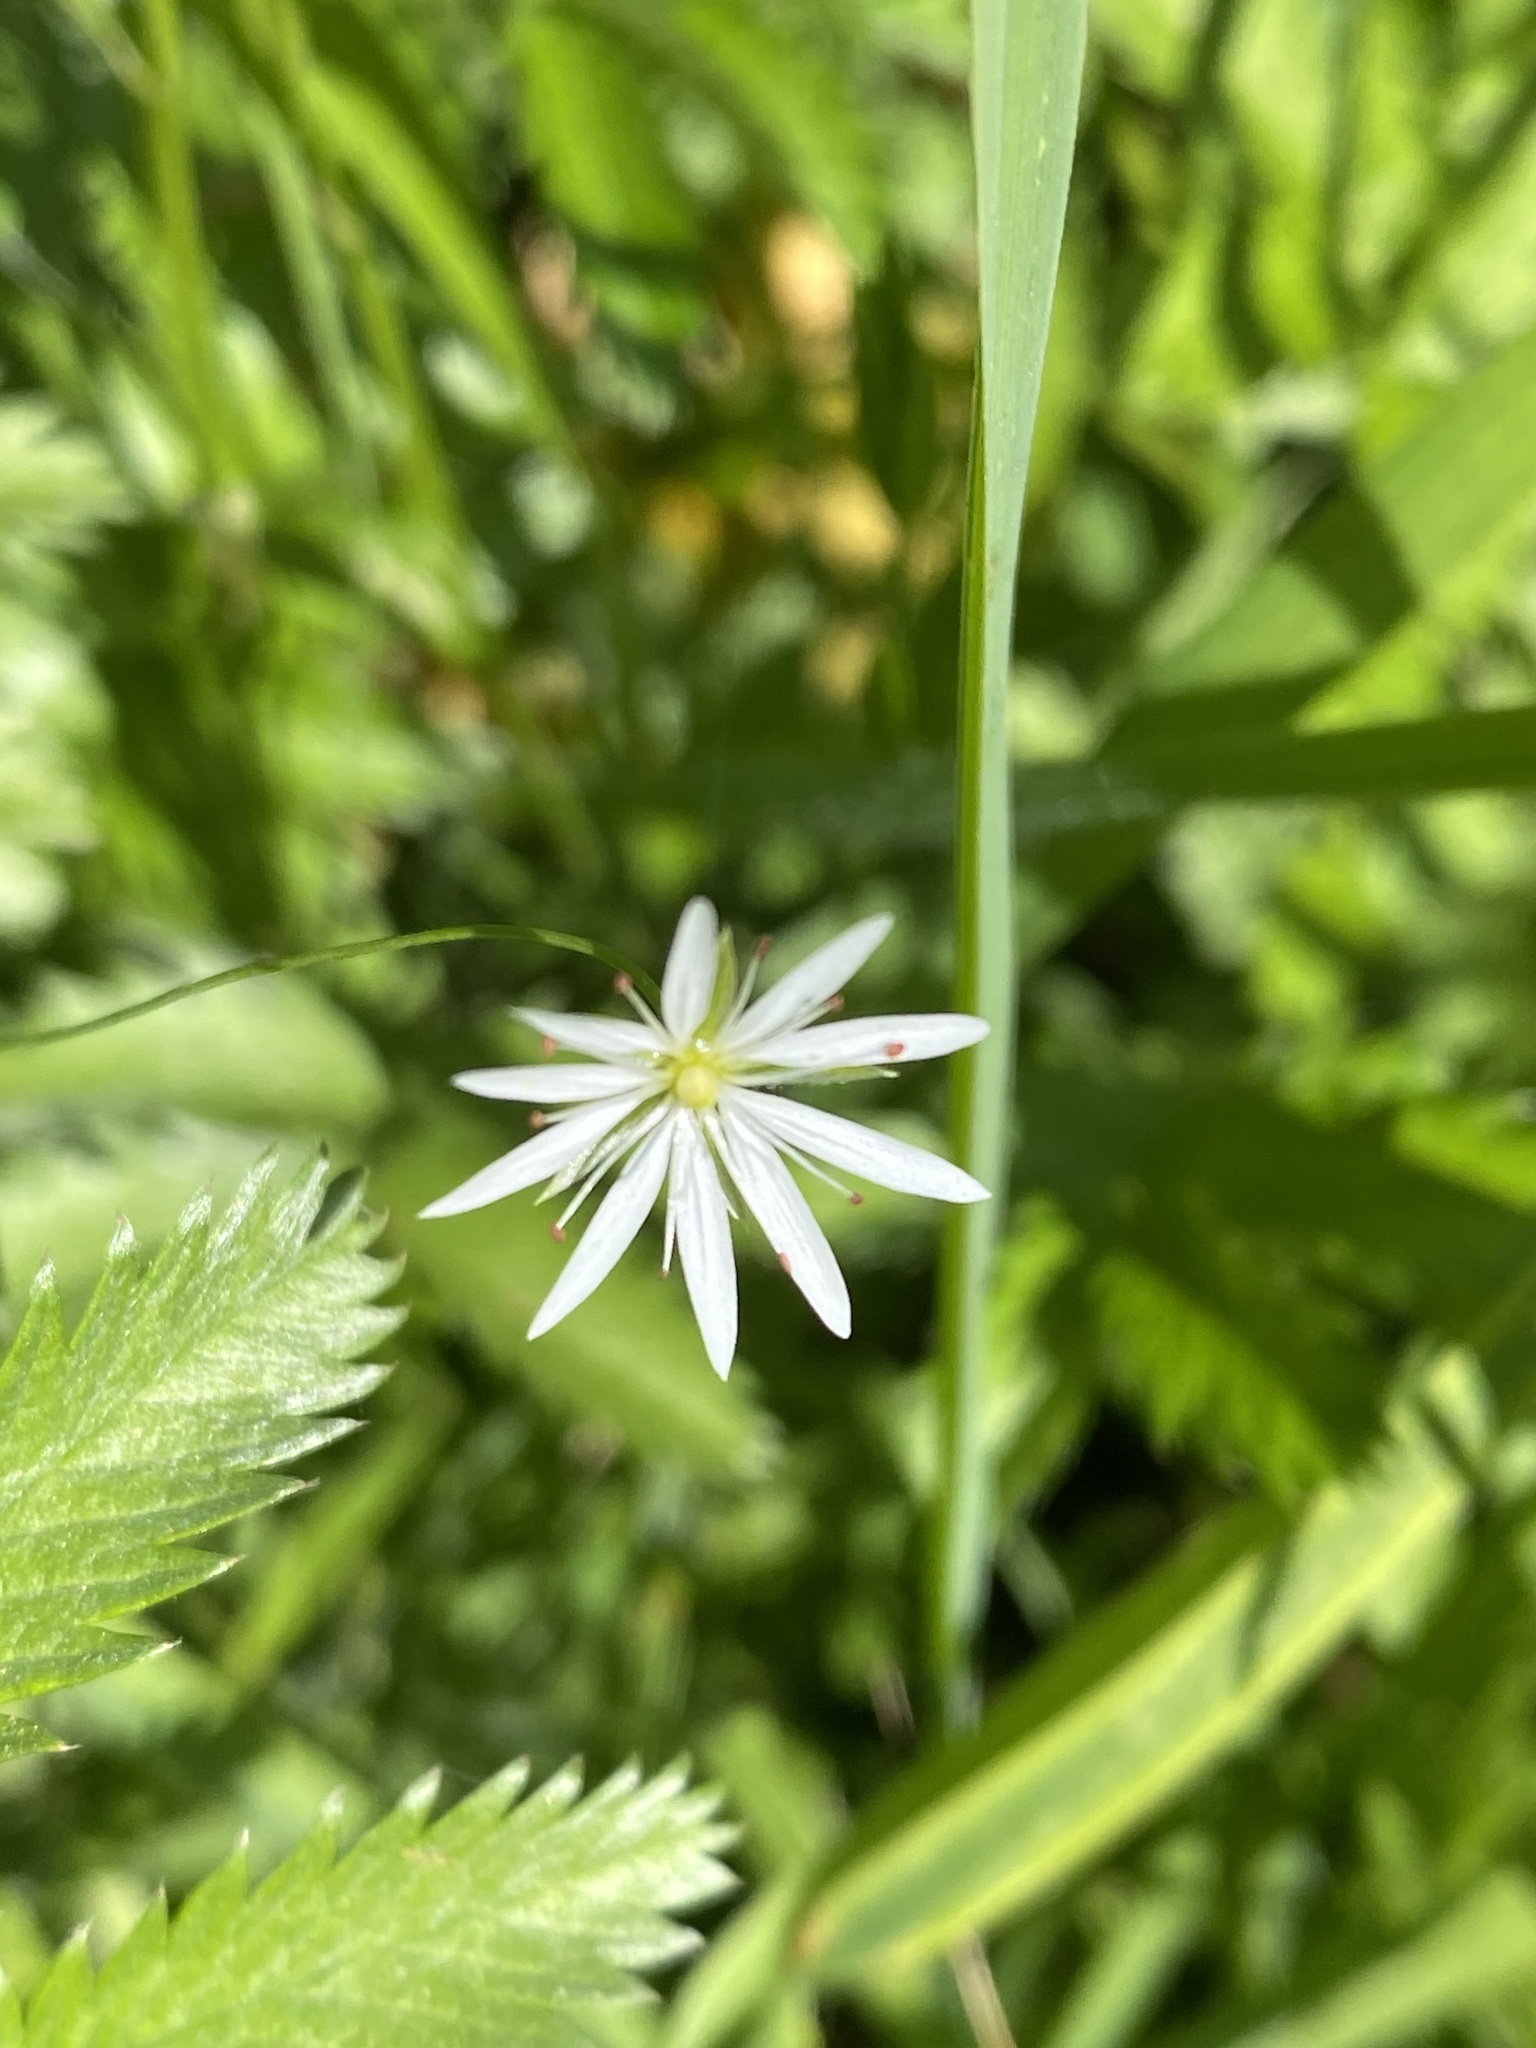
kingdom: Plantae
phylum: Tracheophyta
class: Magnoliopsida
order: Caryophyllales
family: Caryophyllaceae
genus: Stellaria
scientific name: Stellaria graminea
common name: Grass-like starwort
